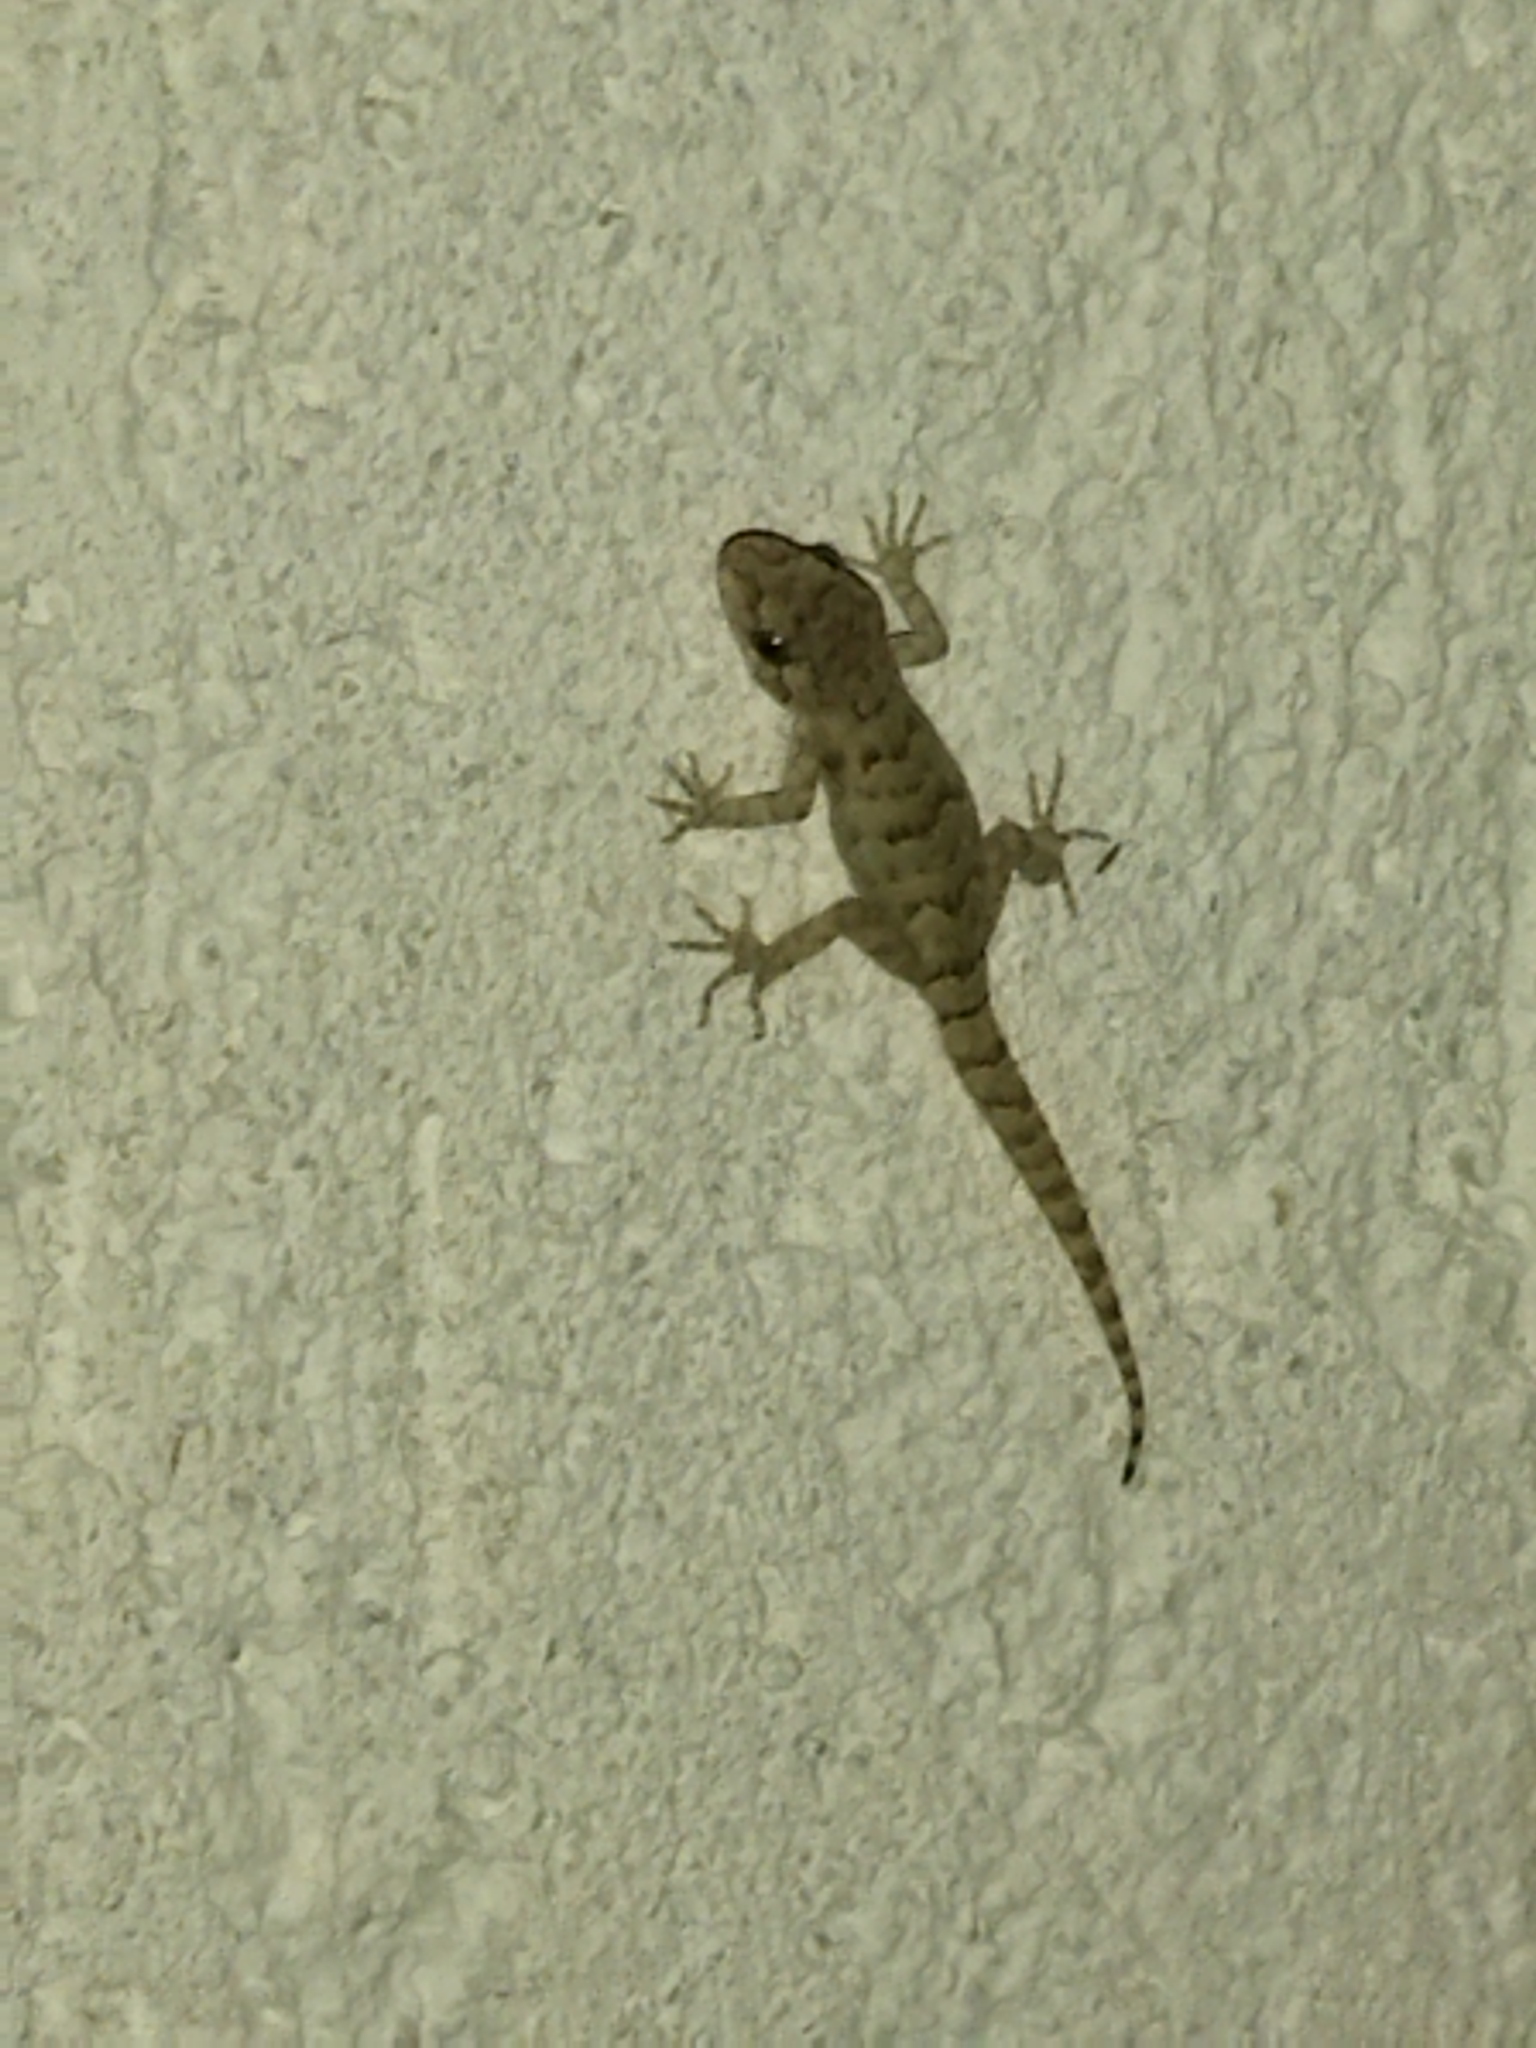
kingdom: Animalia
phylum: Chordata
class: Squamata
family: Gekkonidae
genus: Mediodactylus
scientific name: Mediodactylus kotschyi
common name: Kotschy's gecko
